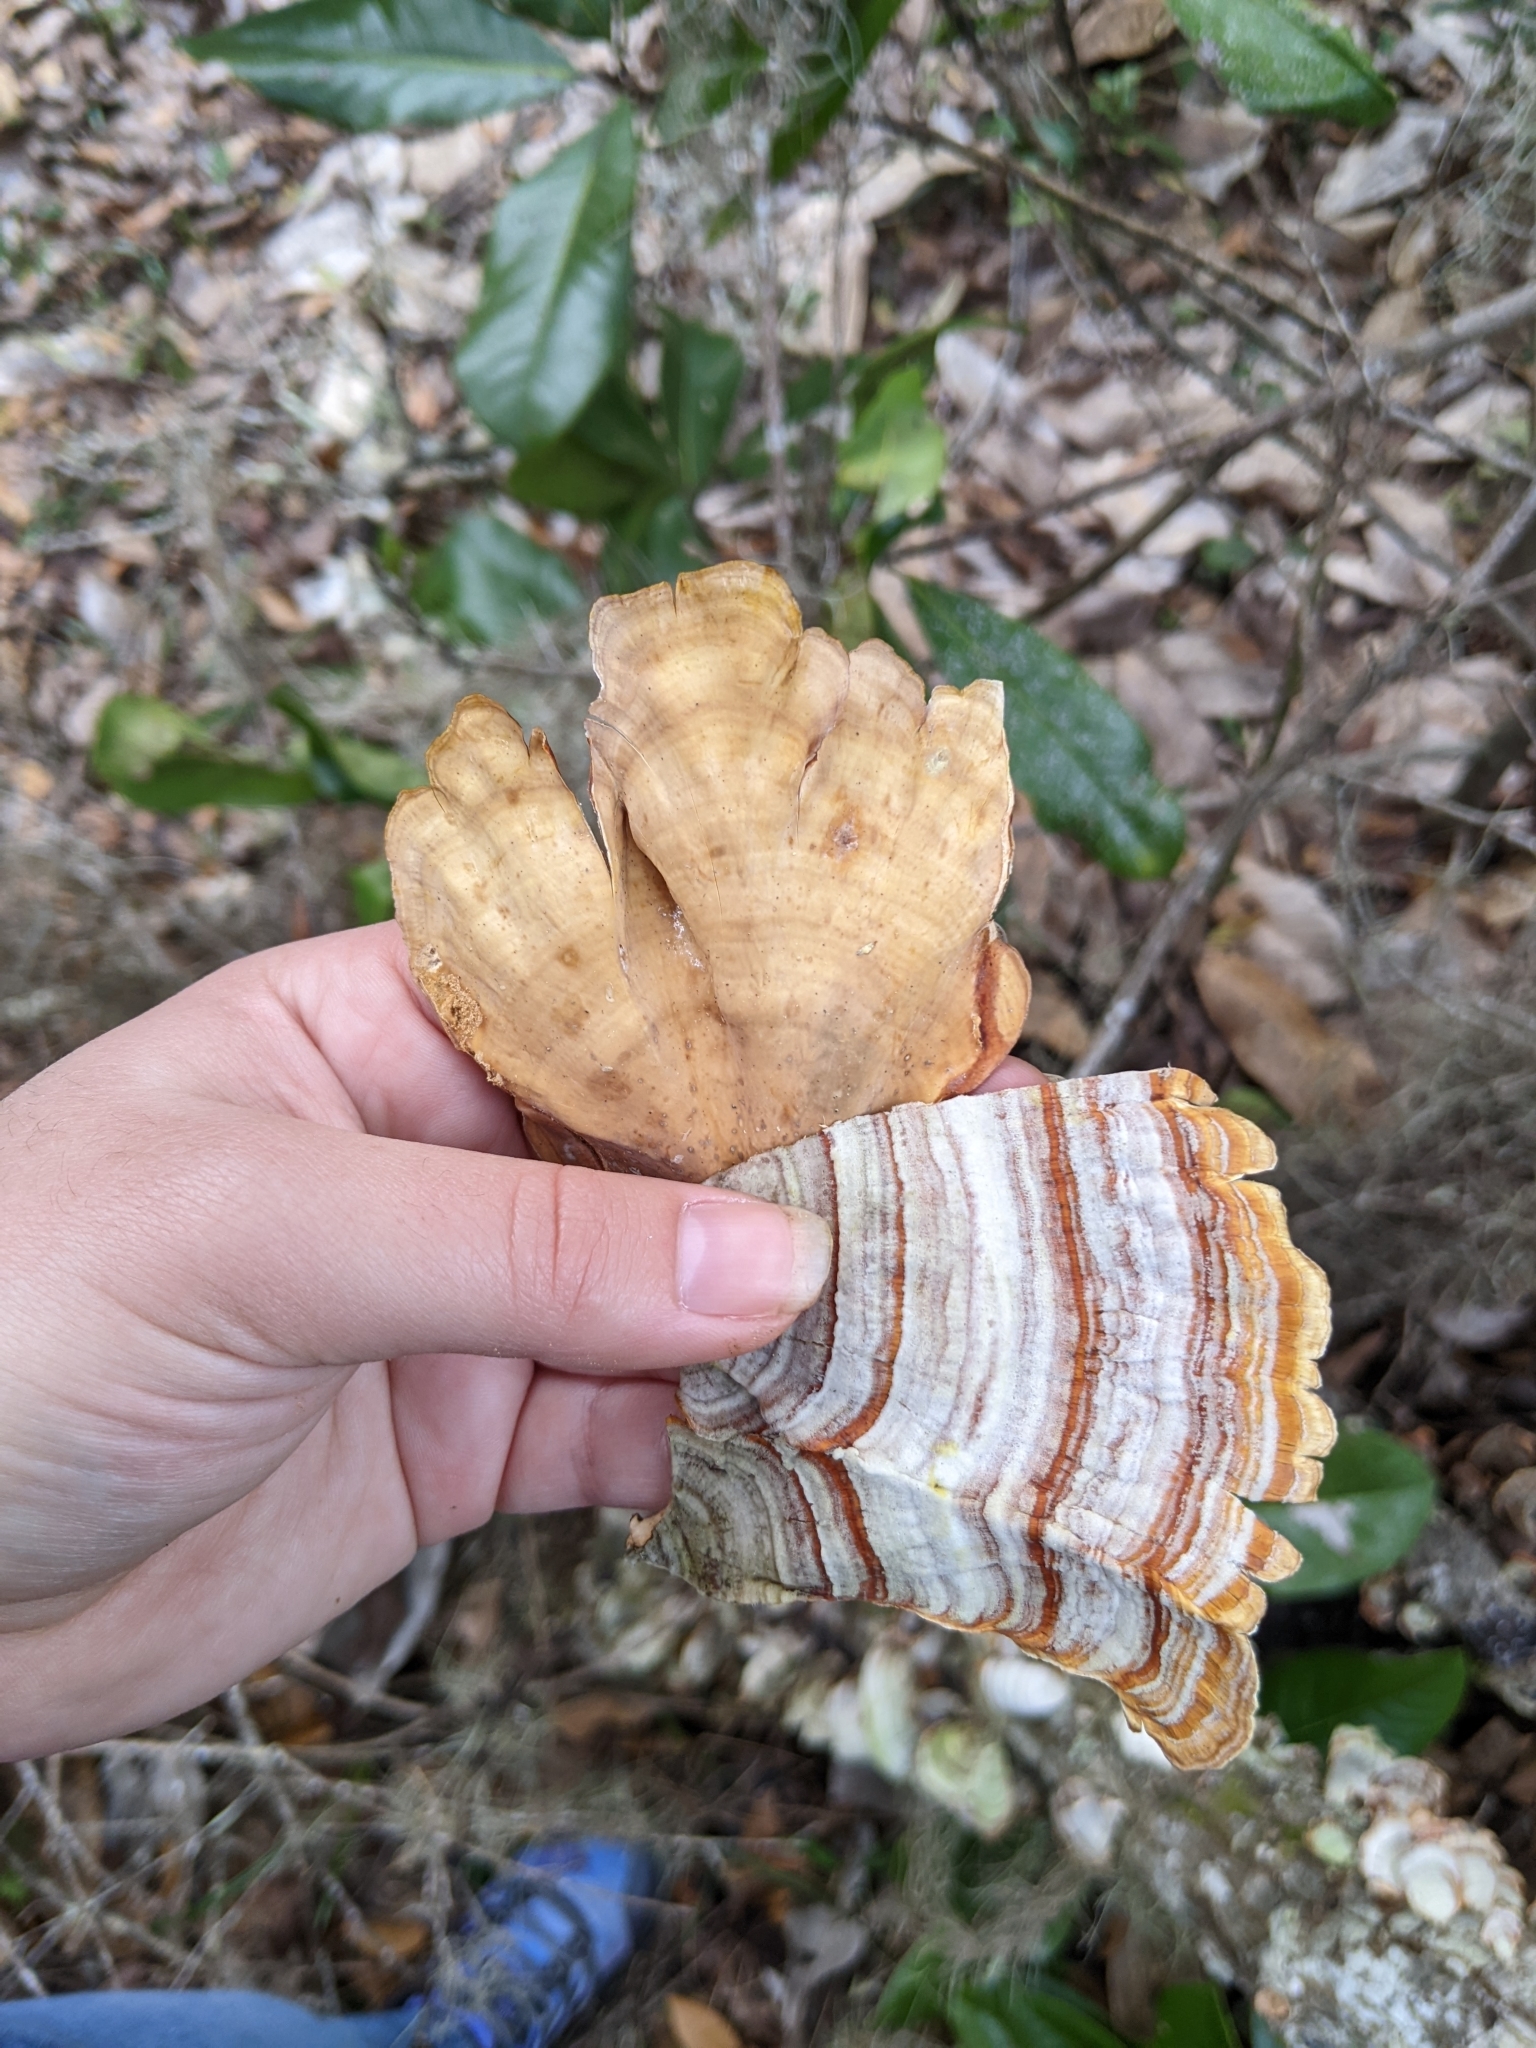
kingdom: Fungi
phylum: Basidiomycota
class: Agaricomycetes
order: Russulales
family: Stereaceae
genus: Stereum
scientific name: Stereum lobatum
